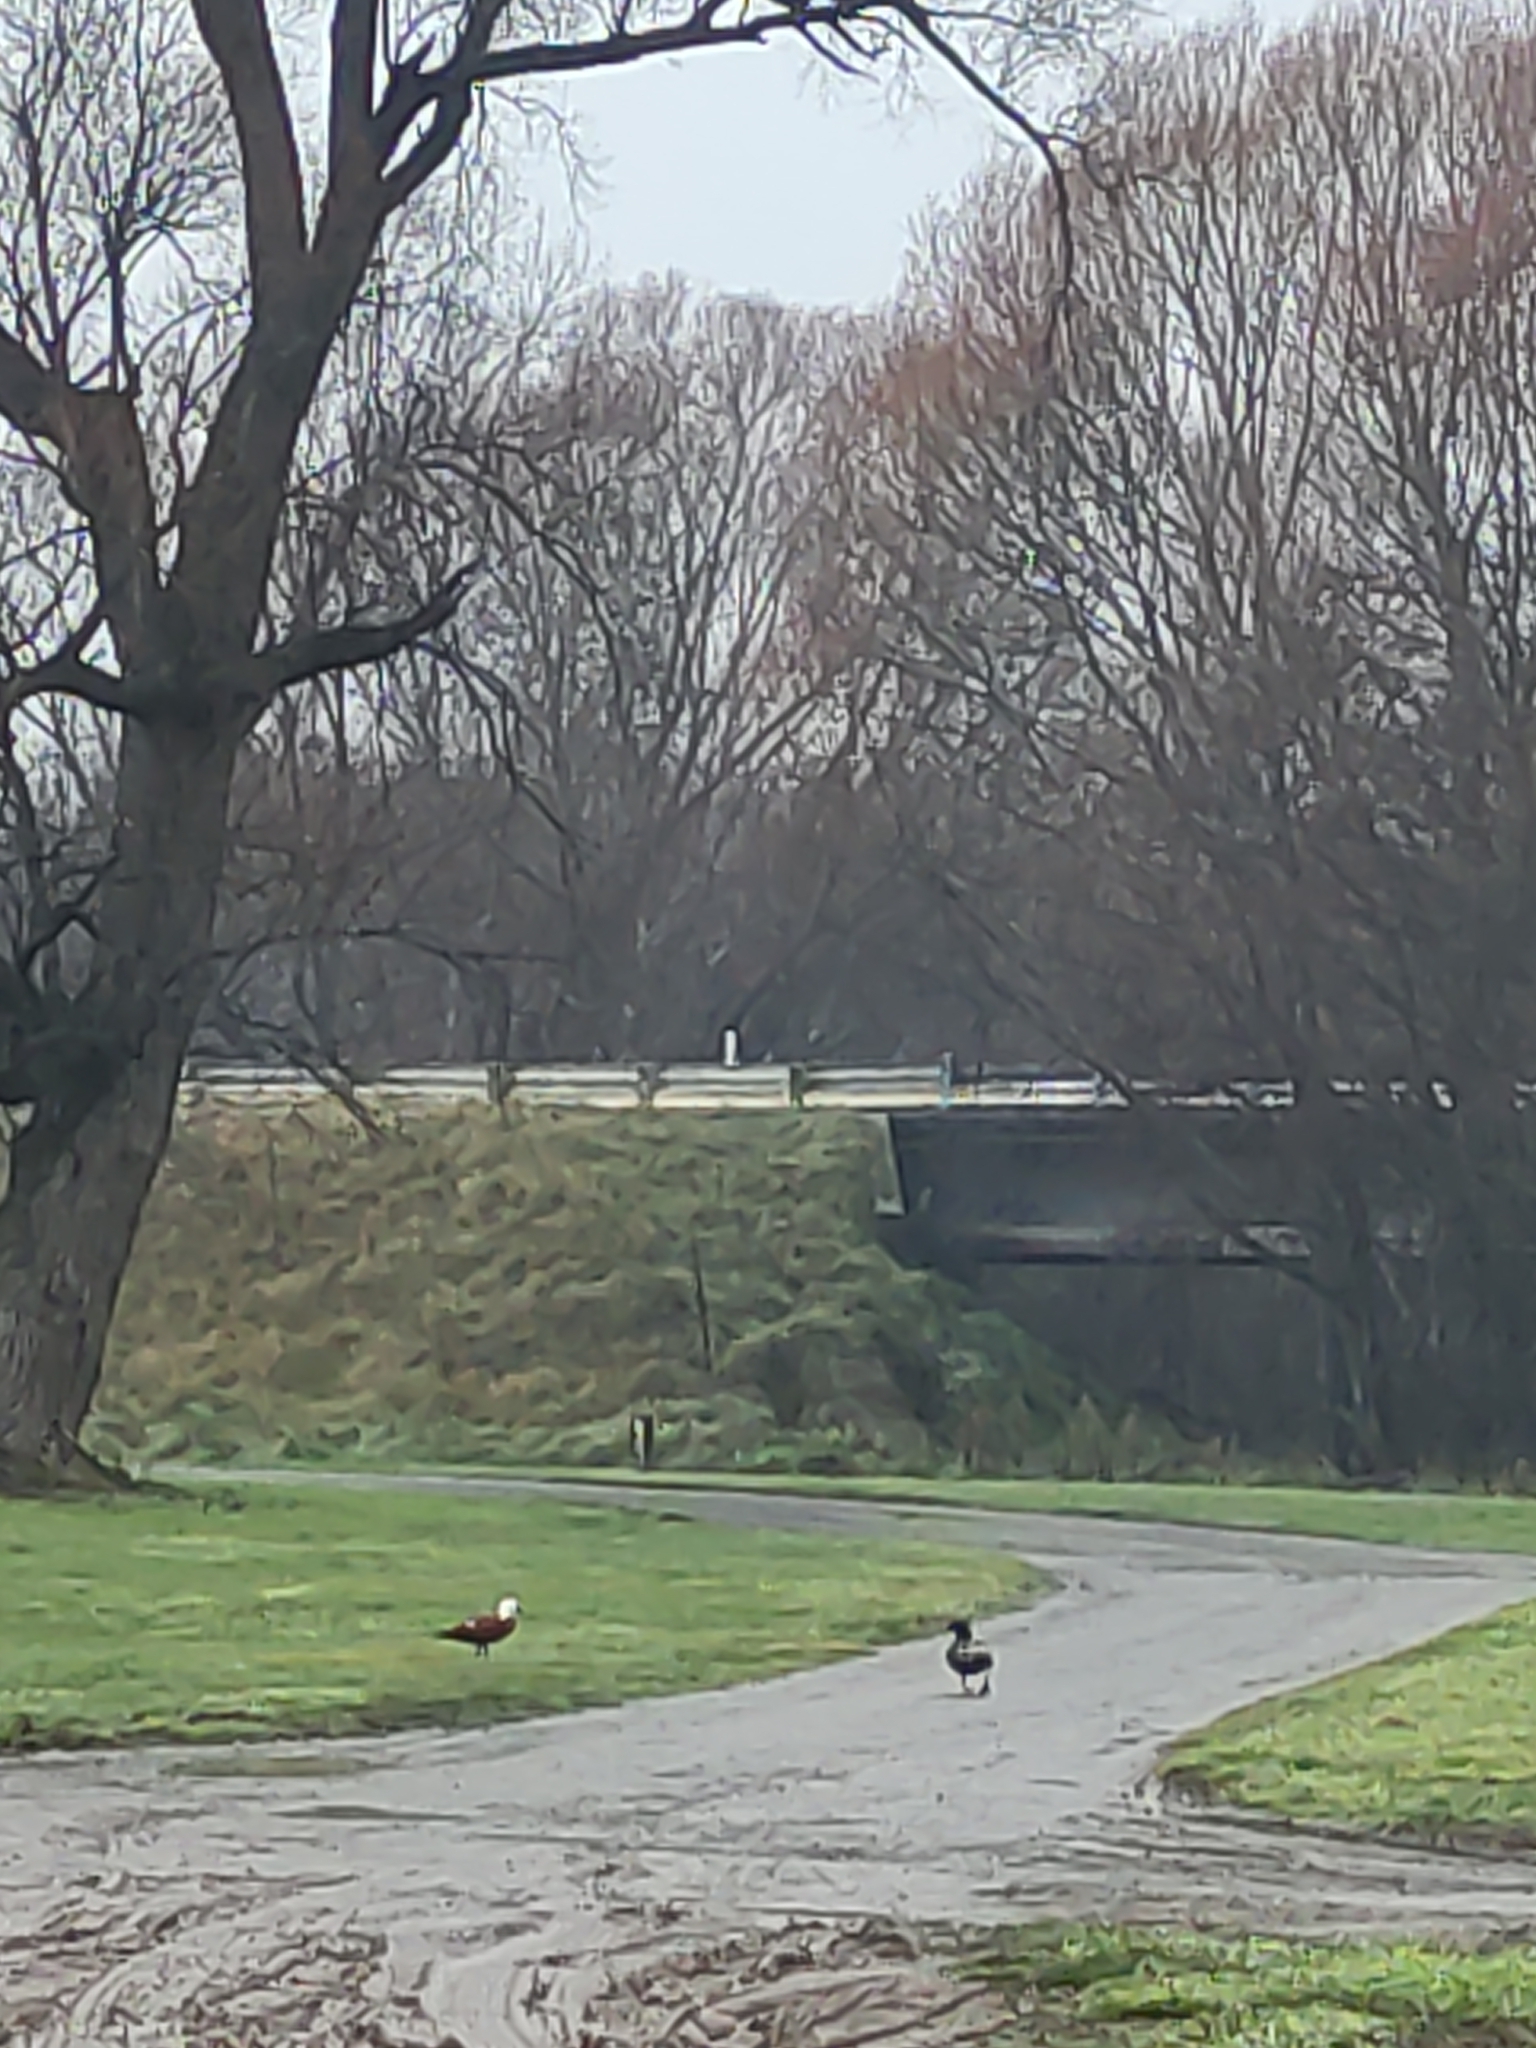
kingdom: Animalia
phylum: Chordata
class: Aves
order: Anseriformes
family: Anatidae
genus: Tadorna
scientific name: Tadorna variegata
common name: Paradise shelduck
